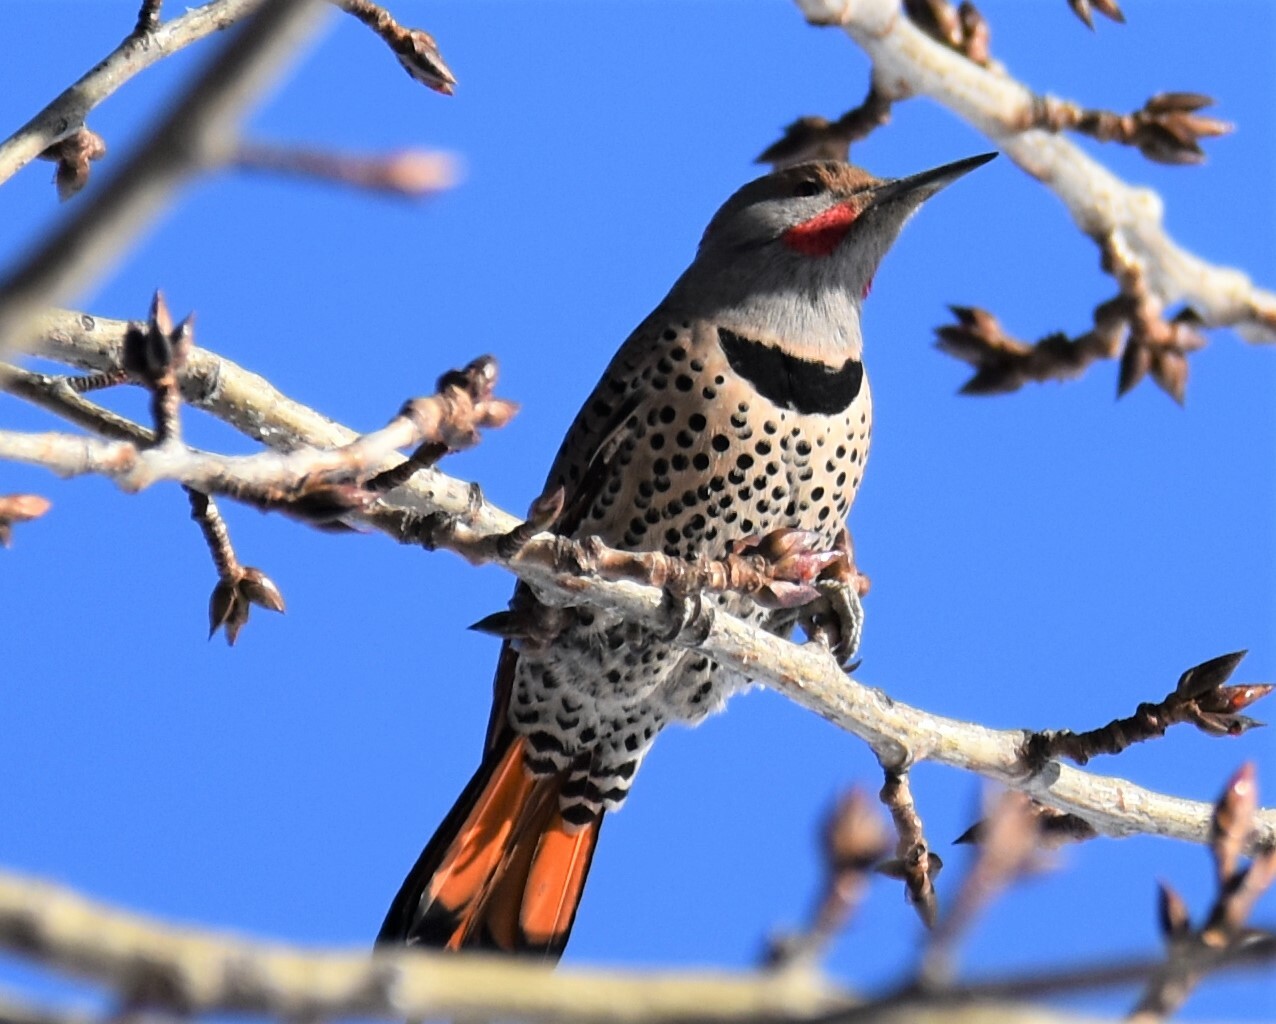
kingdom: Animalia
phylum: Chordata
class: Aves
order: Piciformes
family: Picidae
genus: Colaptes
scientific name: Colaptes auratus
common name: Northern flicker
